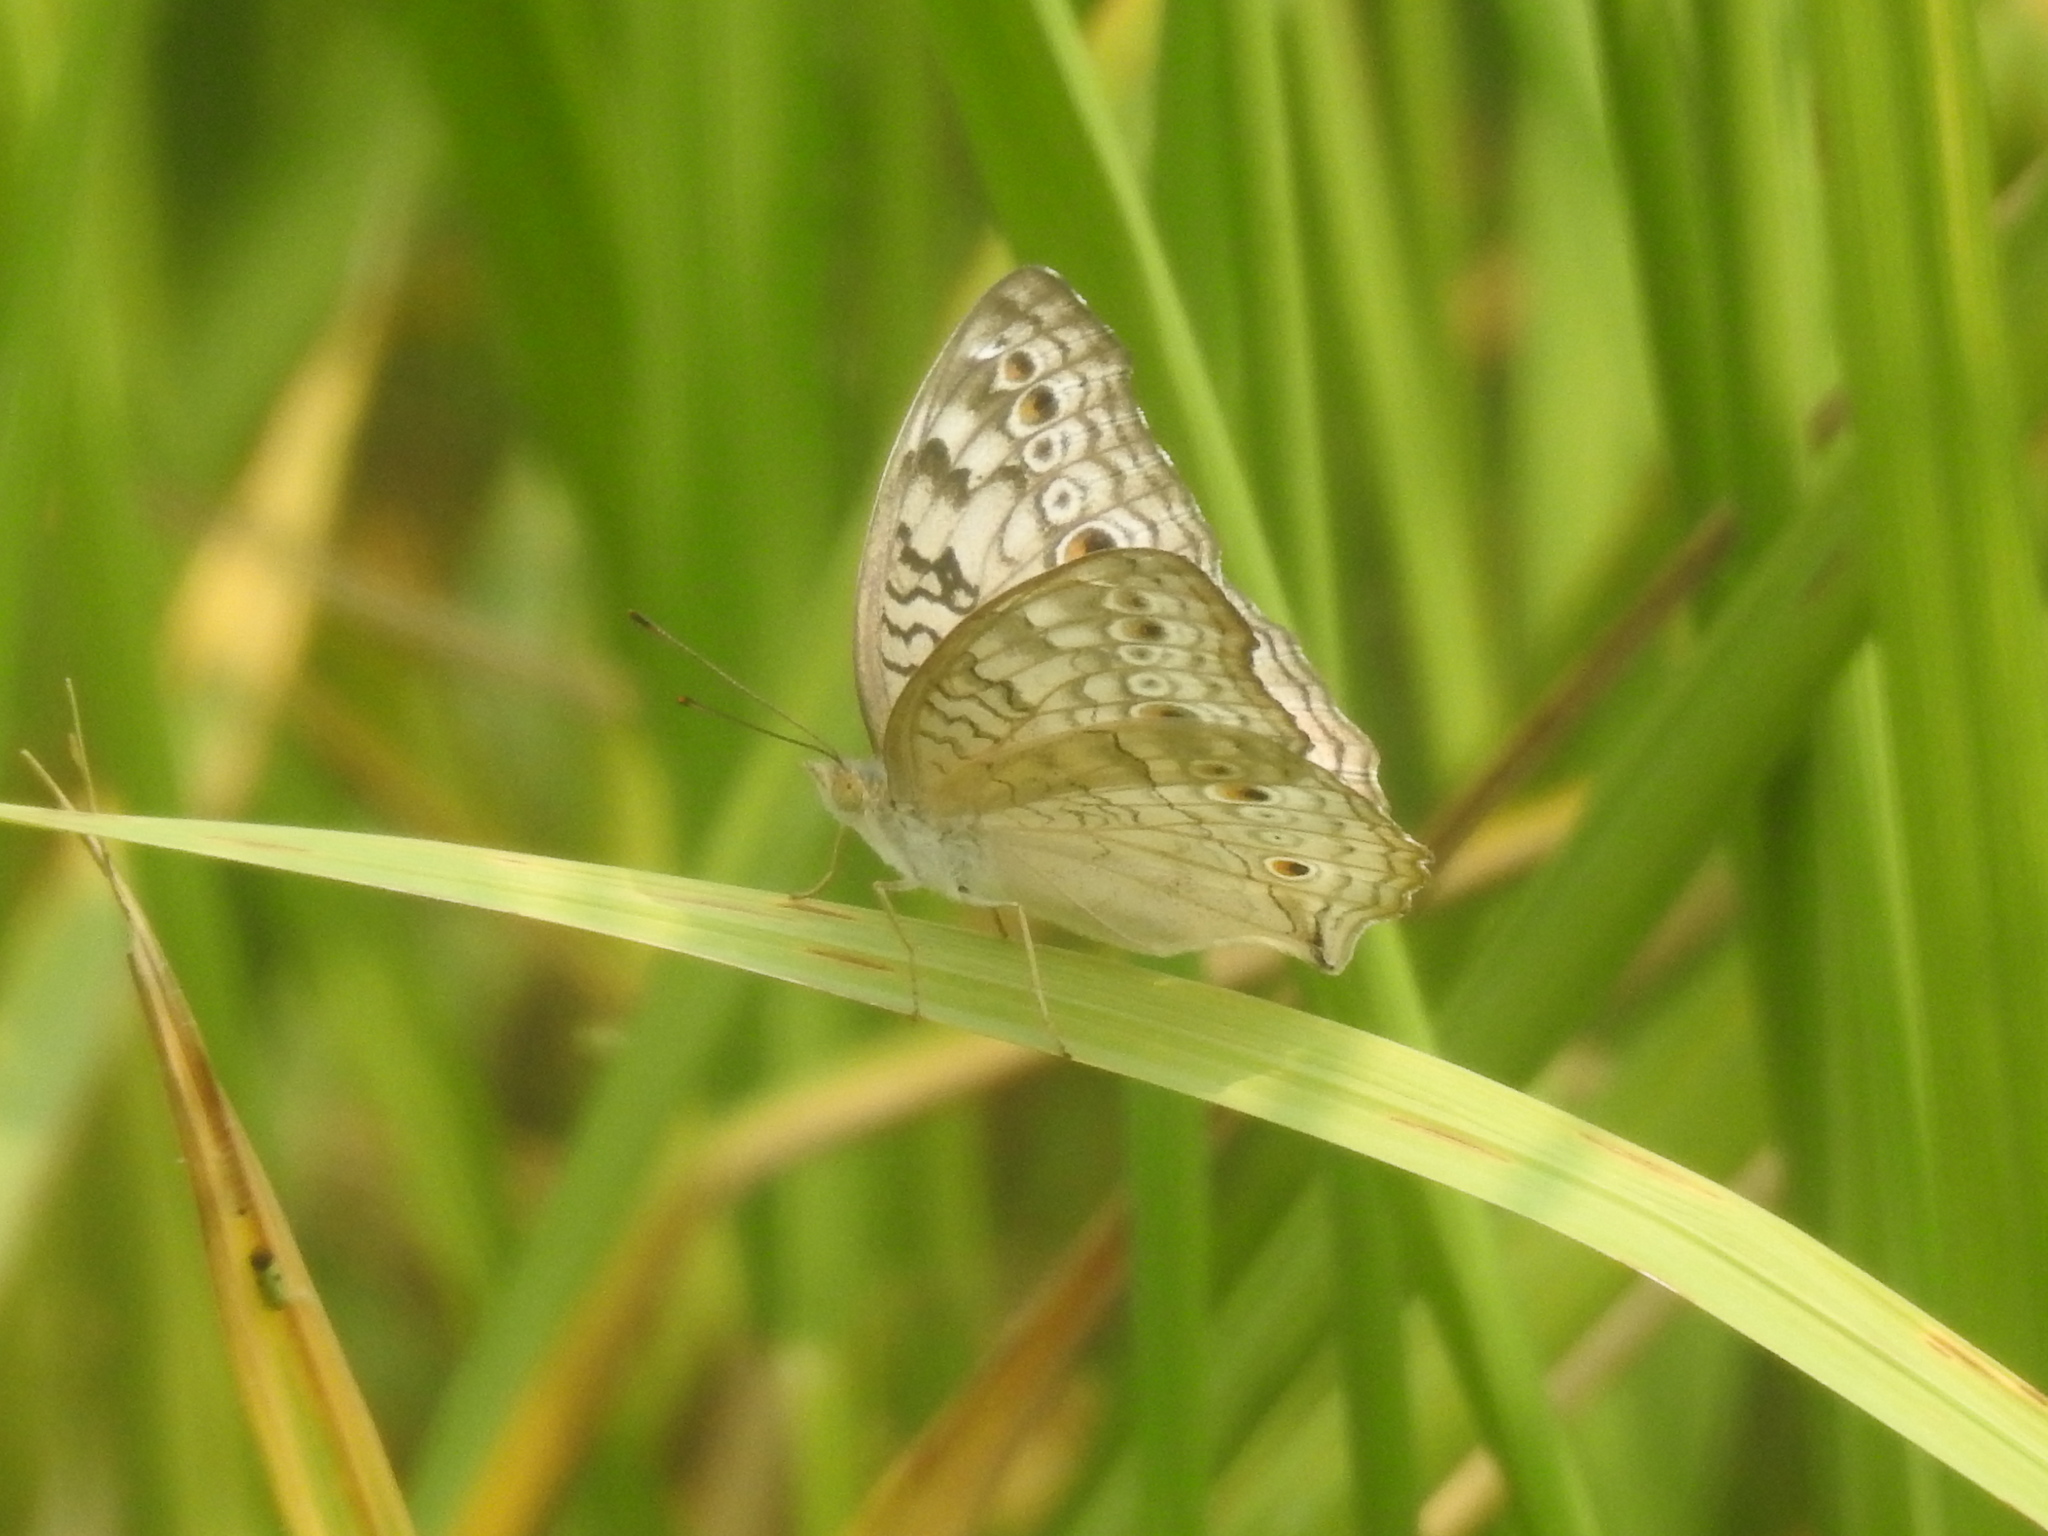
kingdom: Animalia
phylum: Arthropoda
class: Insecta
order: Lepidoptera
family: Nymphalidae
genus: Junonia
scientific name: Junonia atlites
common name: Grey pansy
